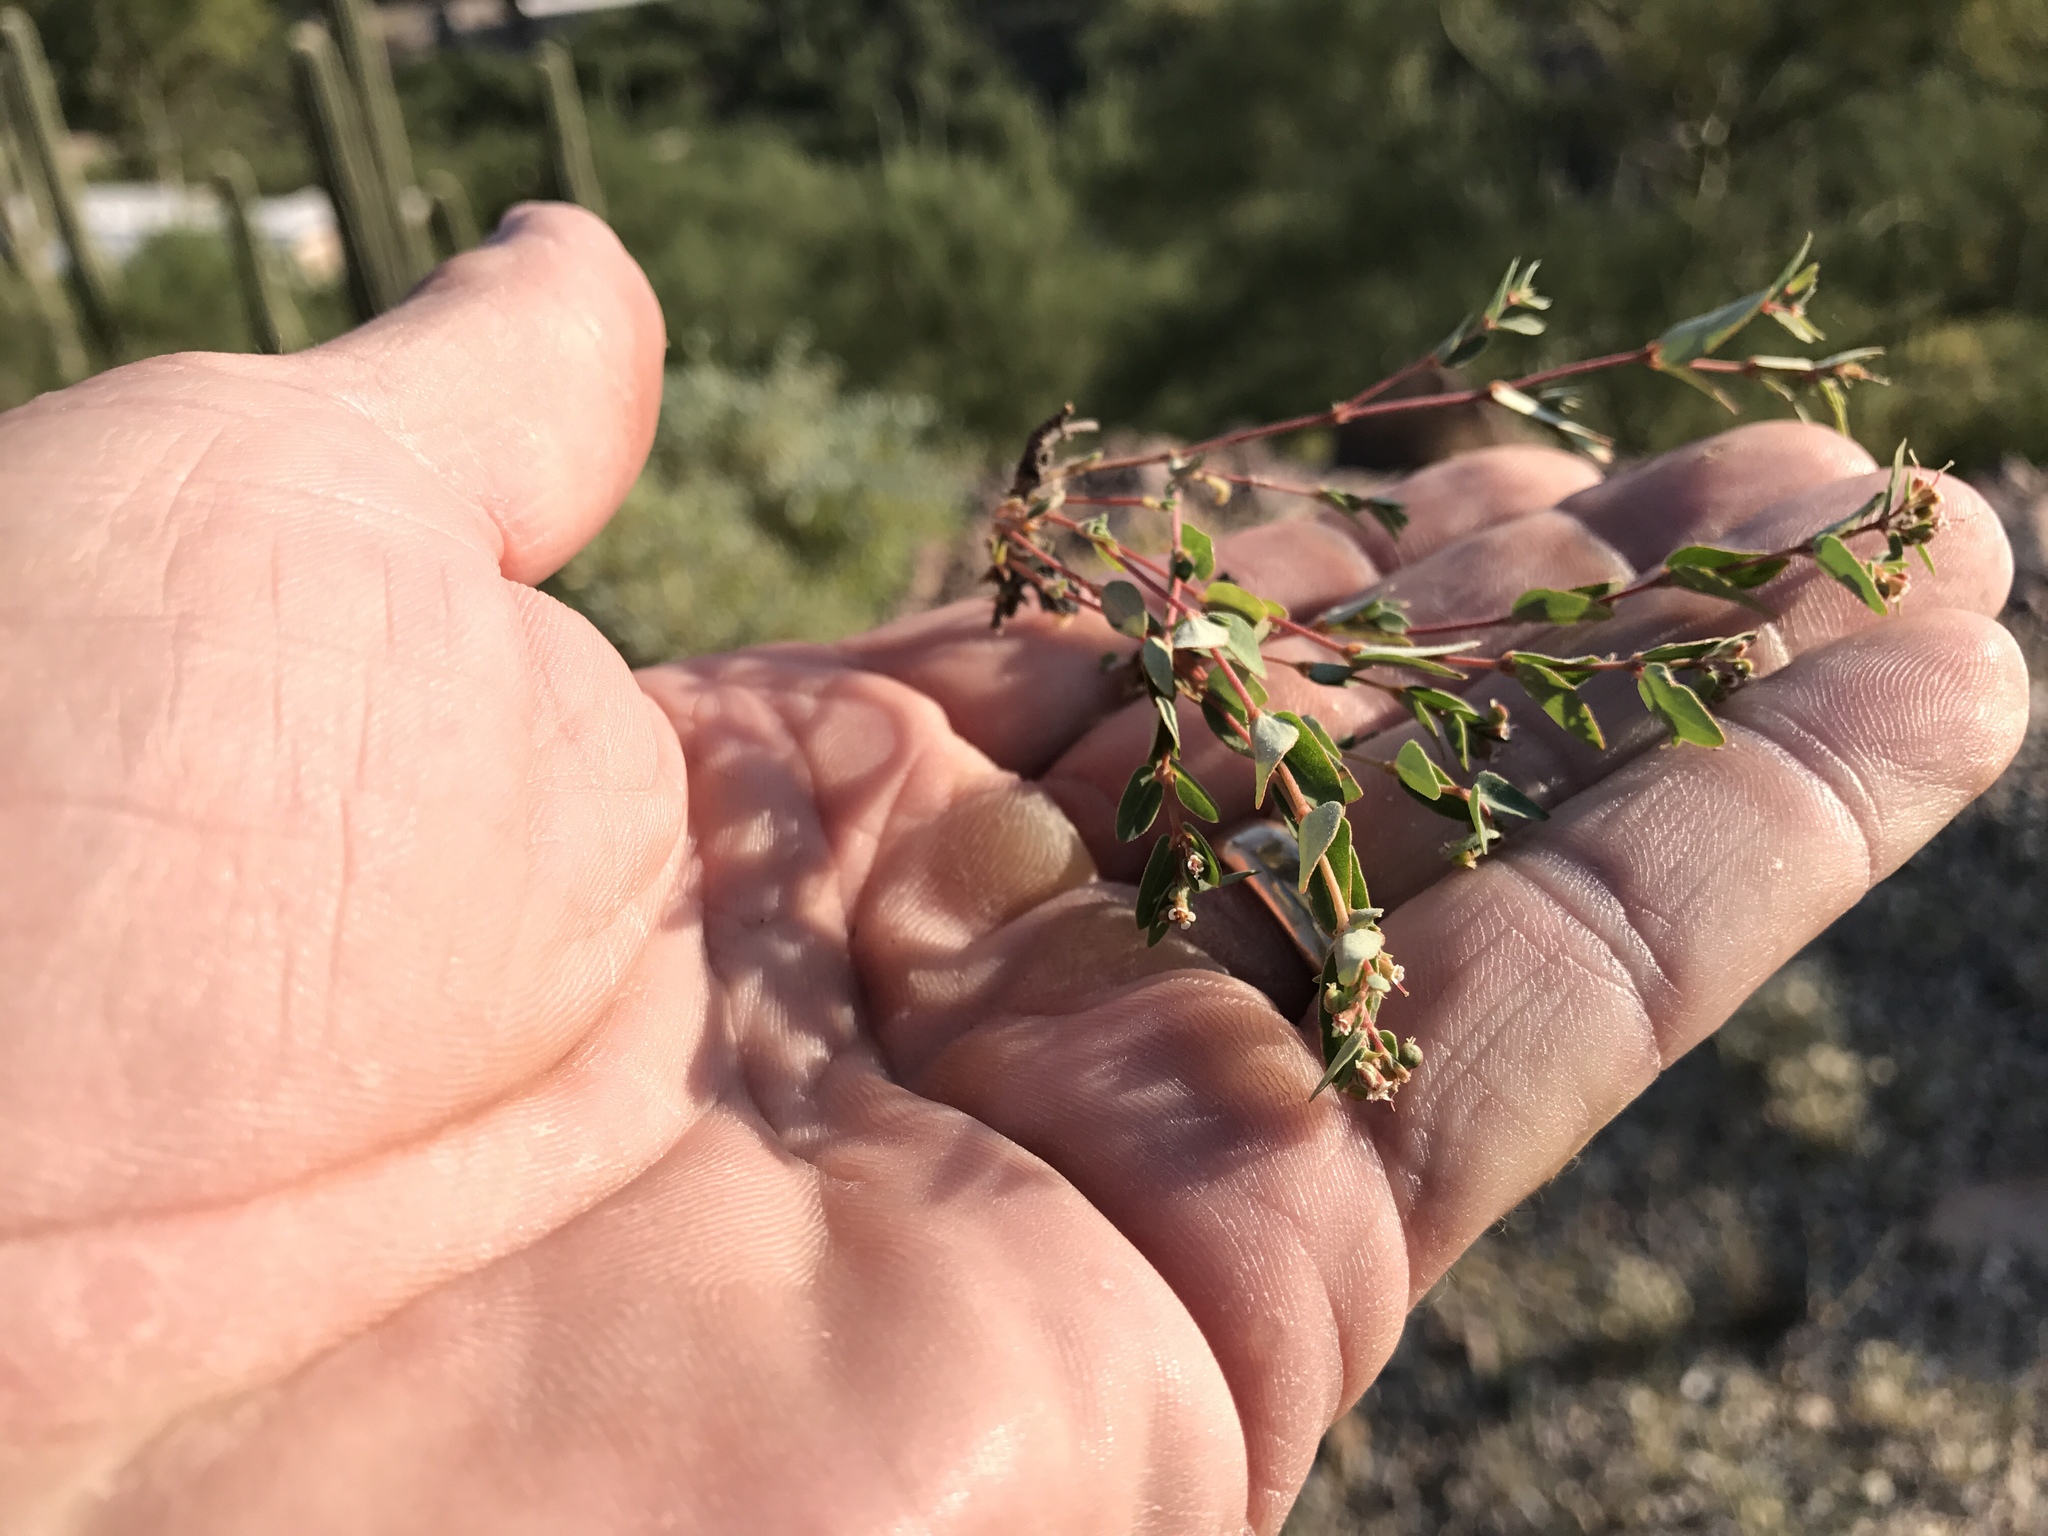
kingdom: Plantae
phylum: Tracheophyta
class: Magnoliopsida
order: Malpighiales
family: Euphorbiaceae
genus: Euphorbia
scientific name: Euphorbia capitellata
